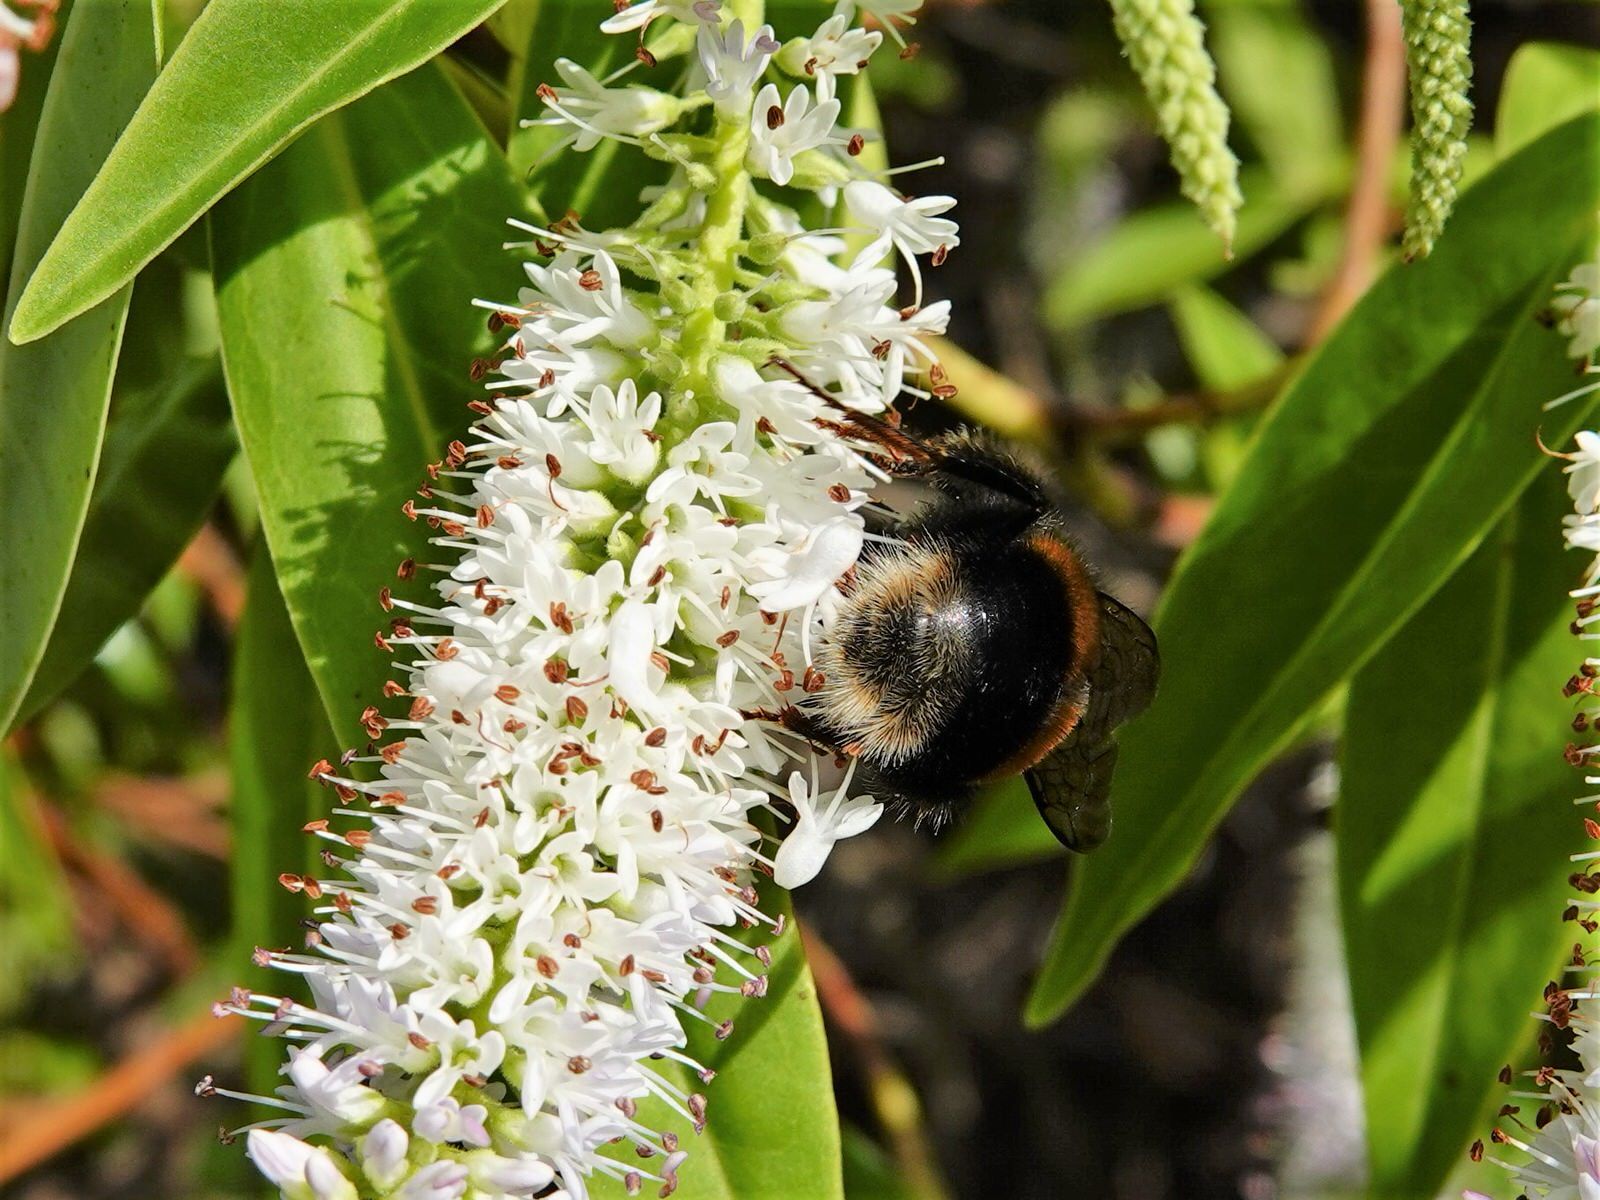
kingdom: Animalia
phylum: Arthropoda
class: Insecta
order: Hymenoptera
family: Apidae
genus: Bombus
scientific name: Bombus terrestris
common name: Buff-tailed bumblebee
